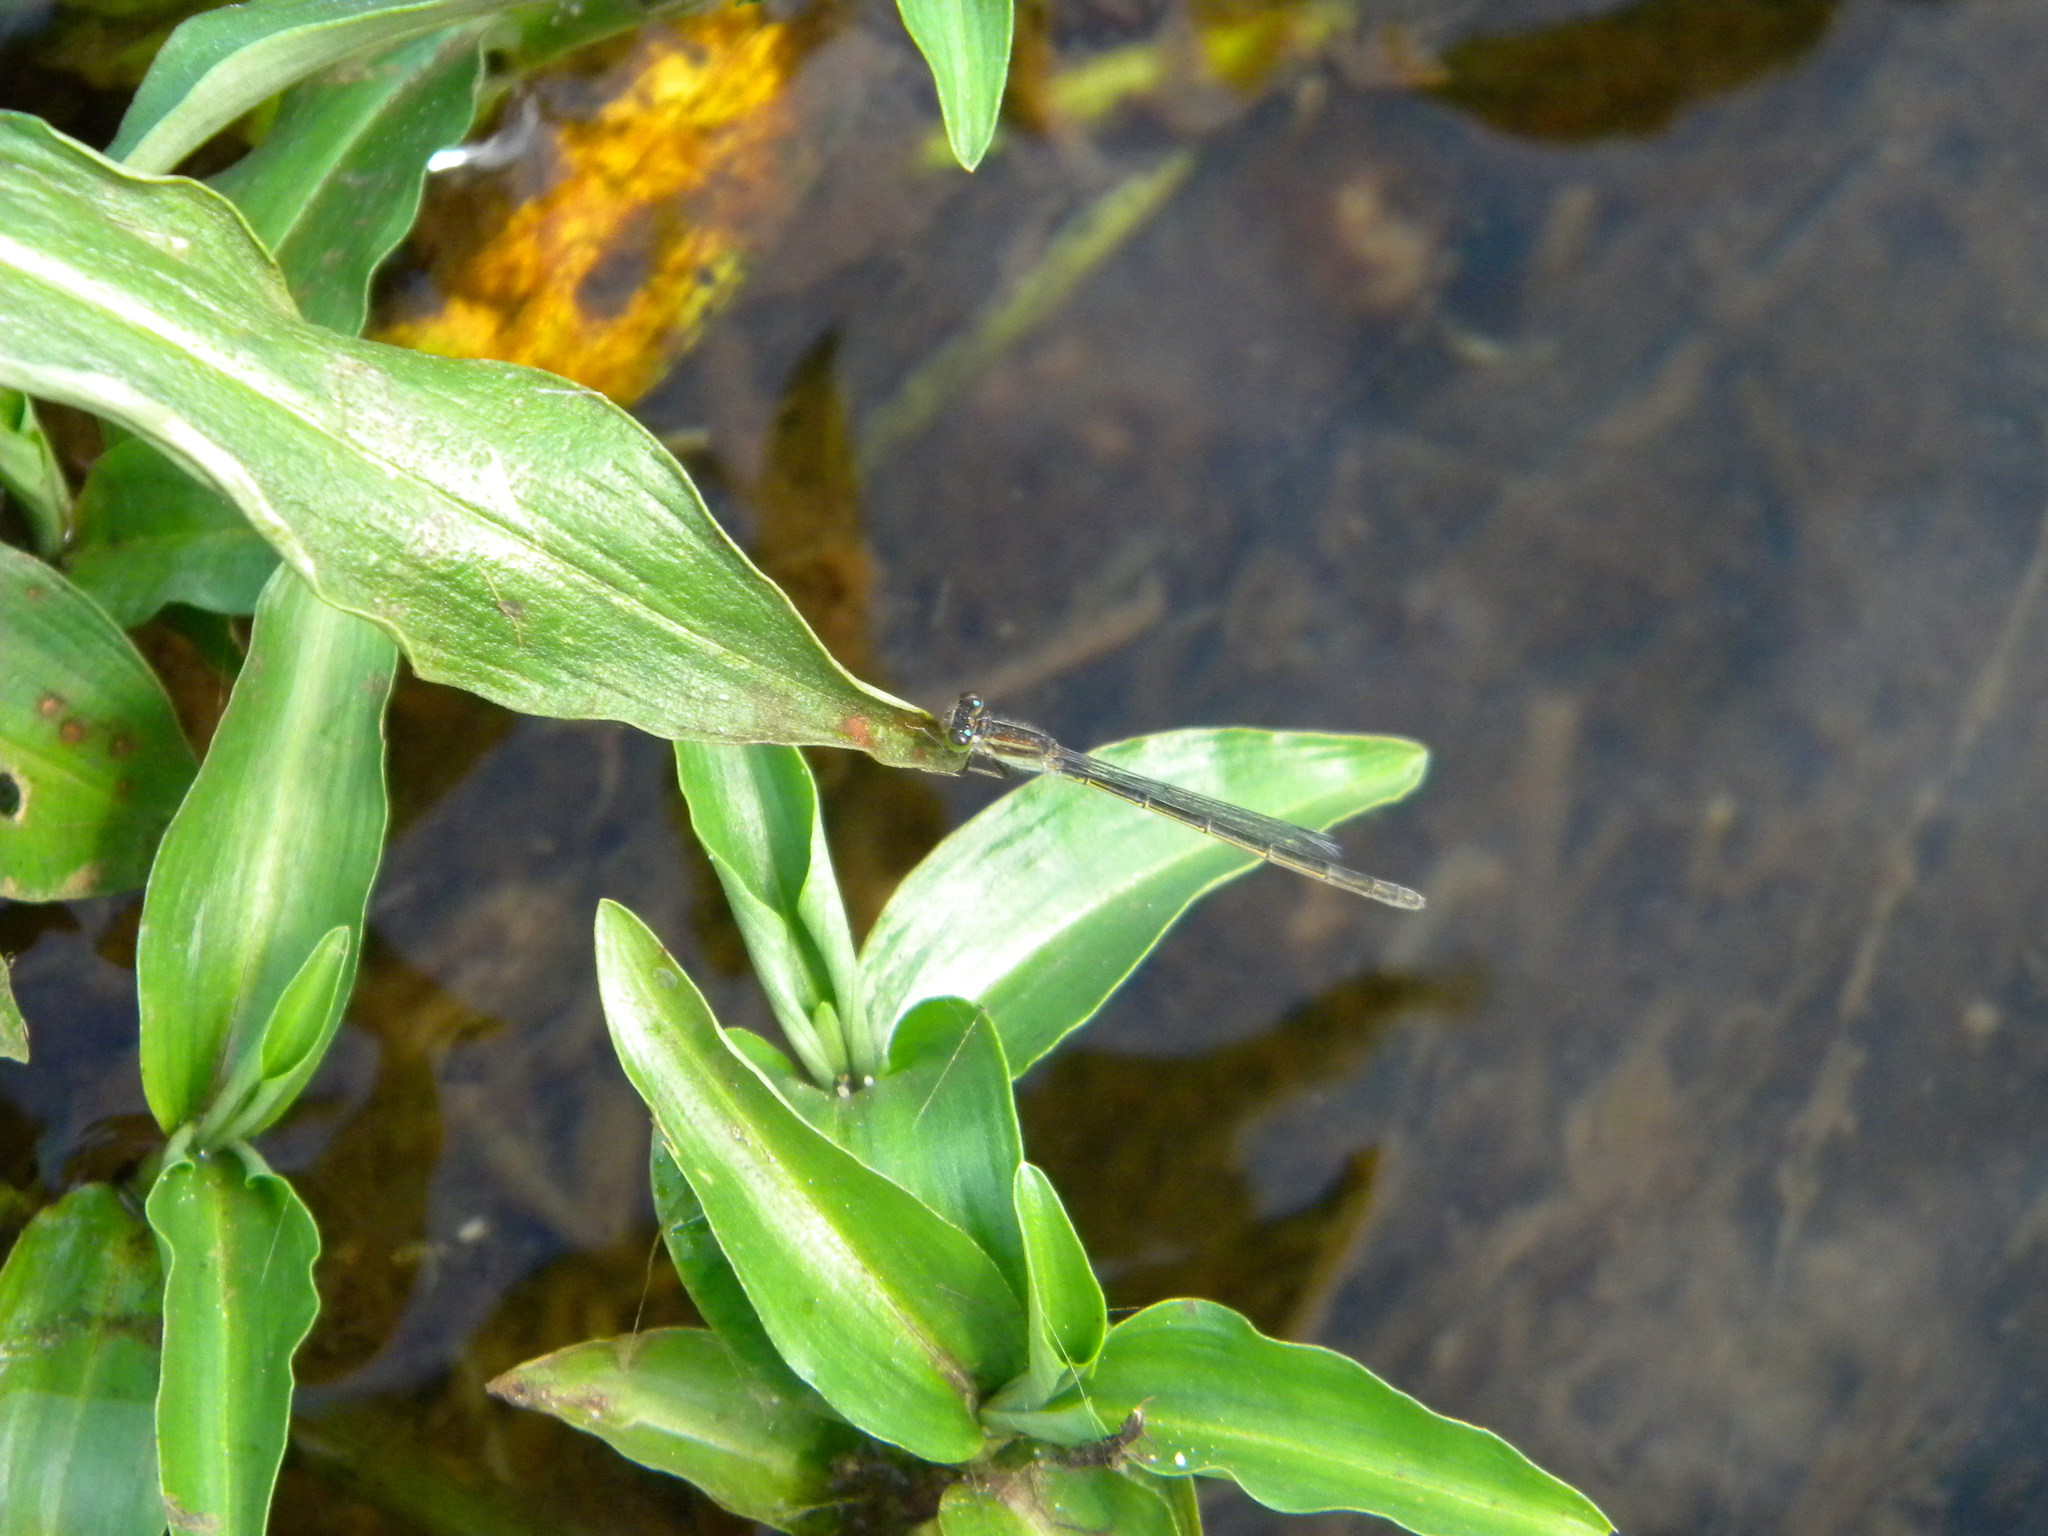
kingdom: Animalia
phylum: Arthropoda
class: Insecta
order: Odonata
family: Coenagrionidae
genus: Ischnura
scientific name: Ischnura senegalensis
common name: Tropical bluetail
